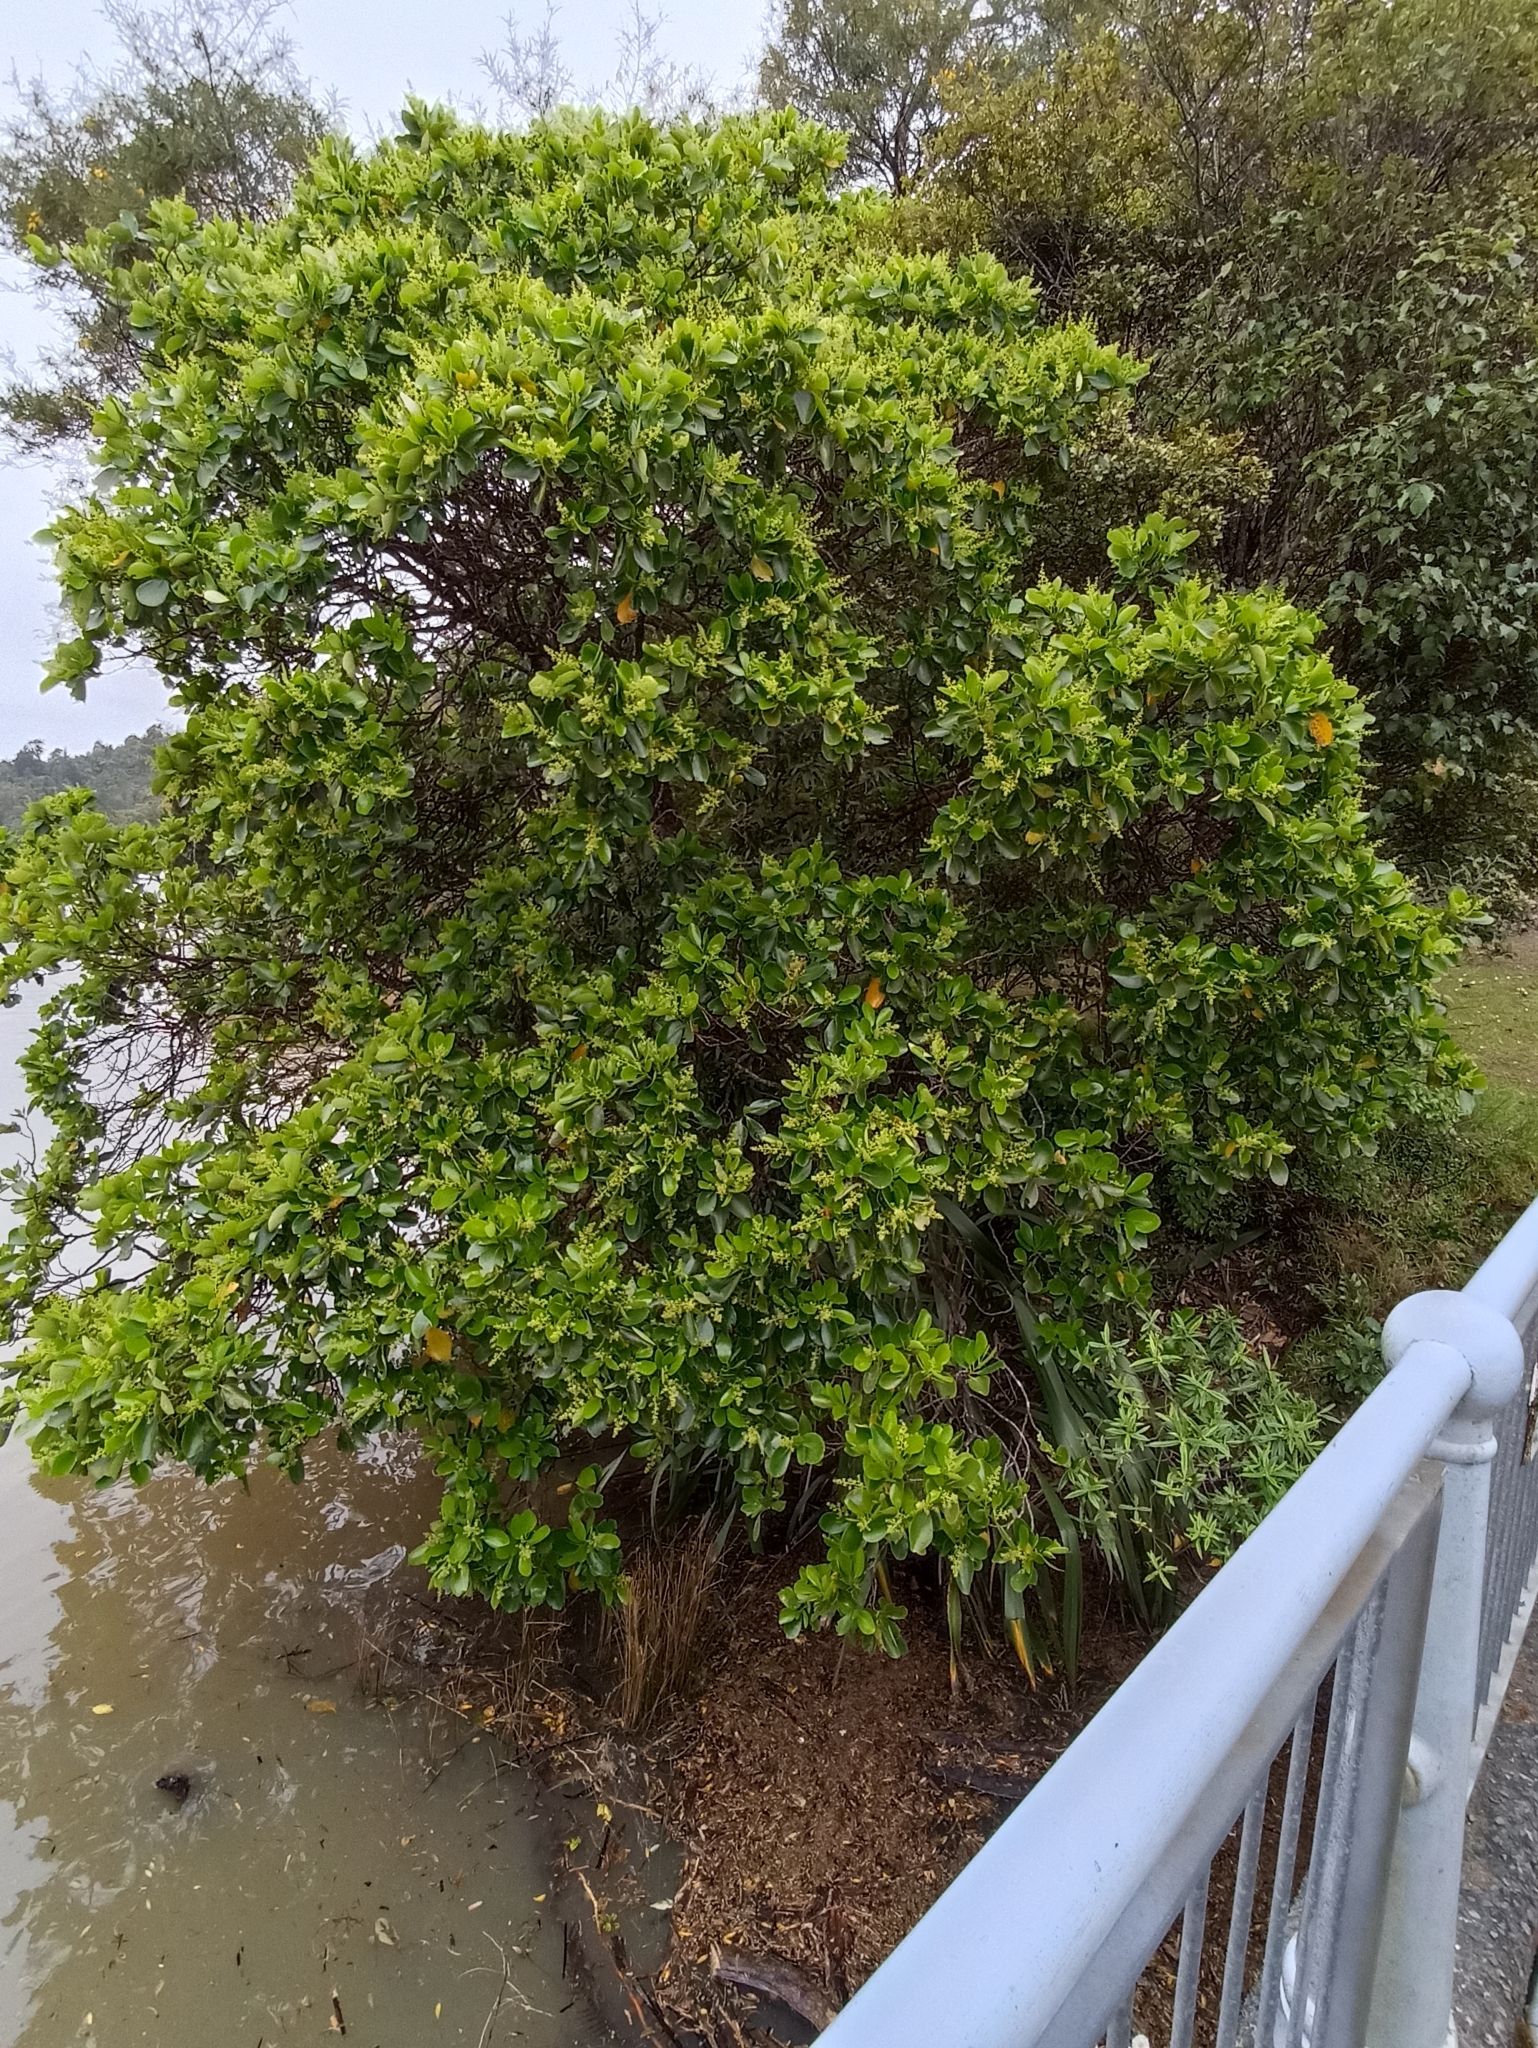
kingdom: Plantae
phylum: Tracheophyta
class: Magnoliopsida
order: Apiales
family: Griseliniaceae
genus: Griselinia
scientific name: Griselinia lucida
